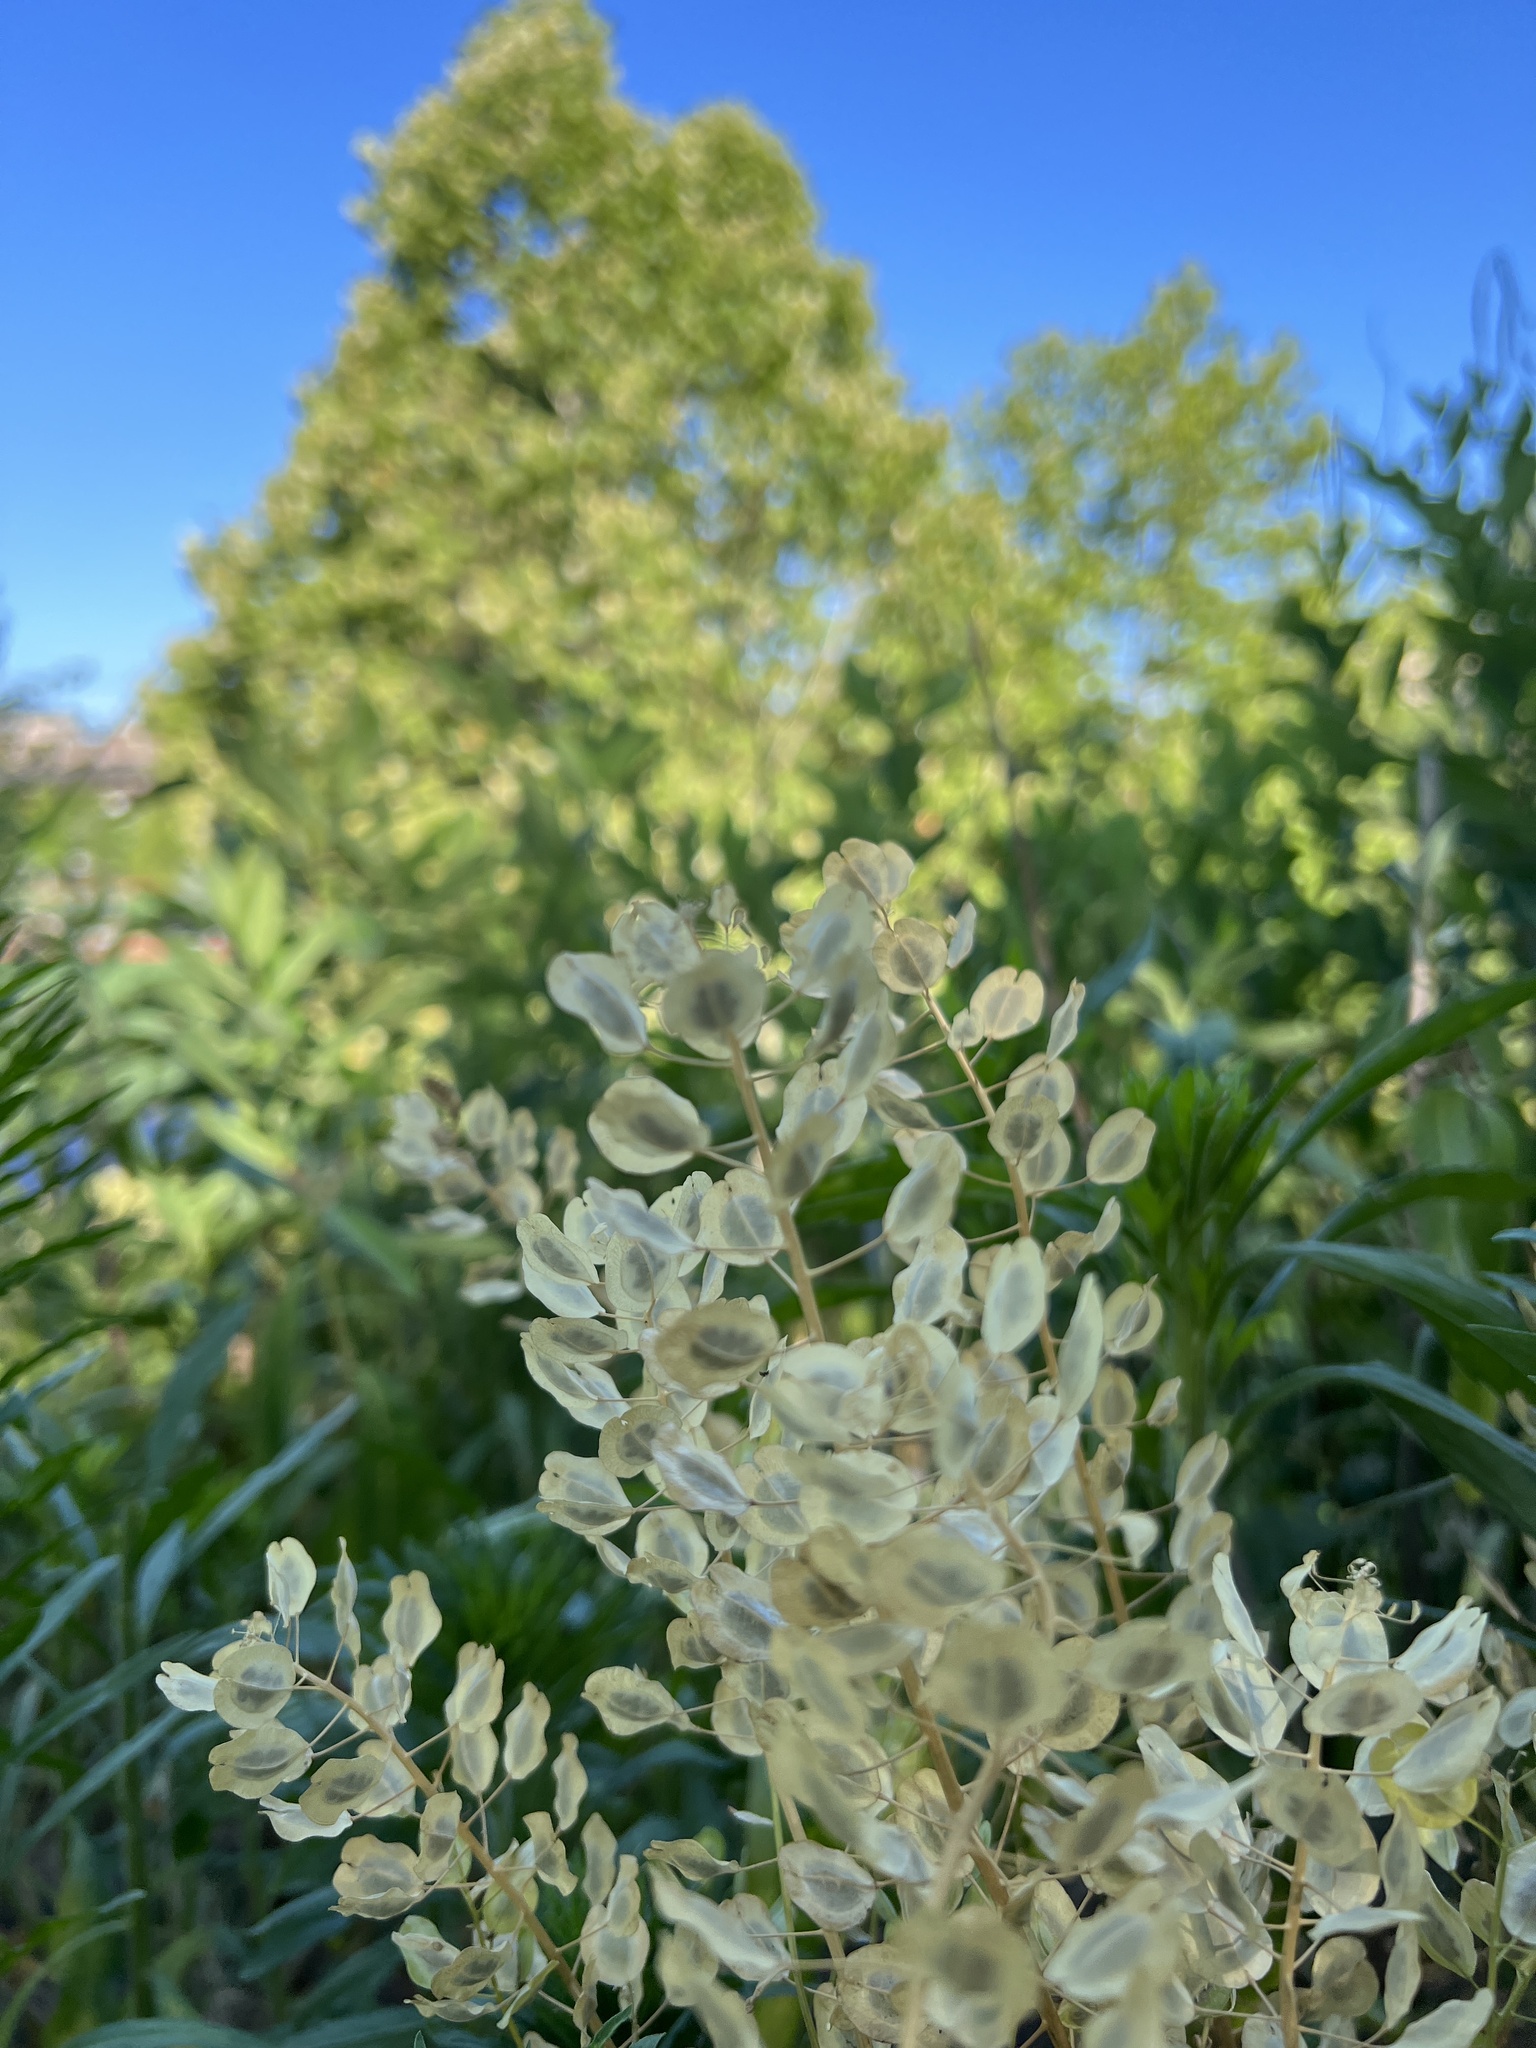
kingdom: Plantae
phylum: Tracheophyta
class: Magnoliopsida
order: Brassicales
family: Brassicaceae
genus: Thlaspi
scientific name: Thlaspi arvense
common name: Field pennycress
